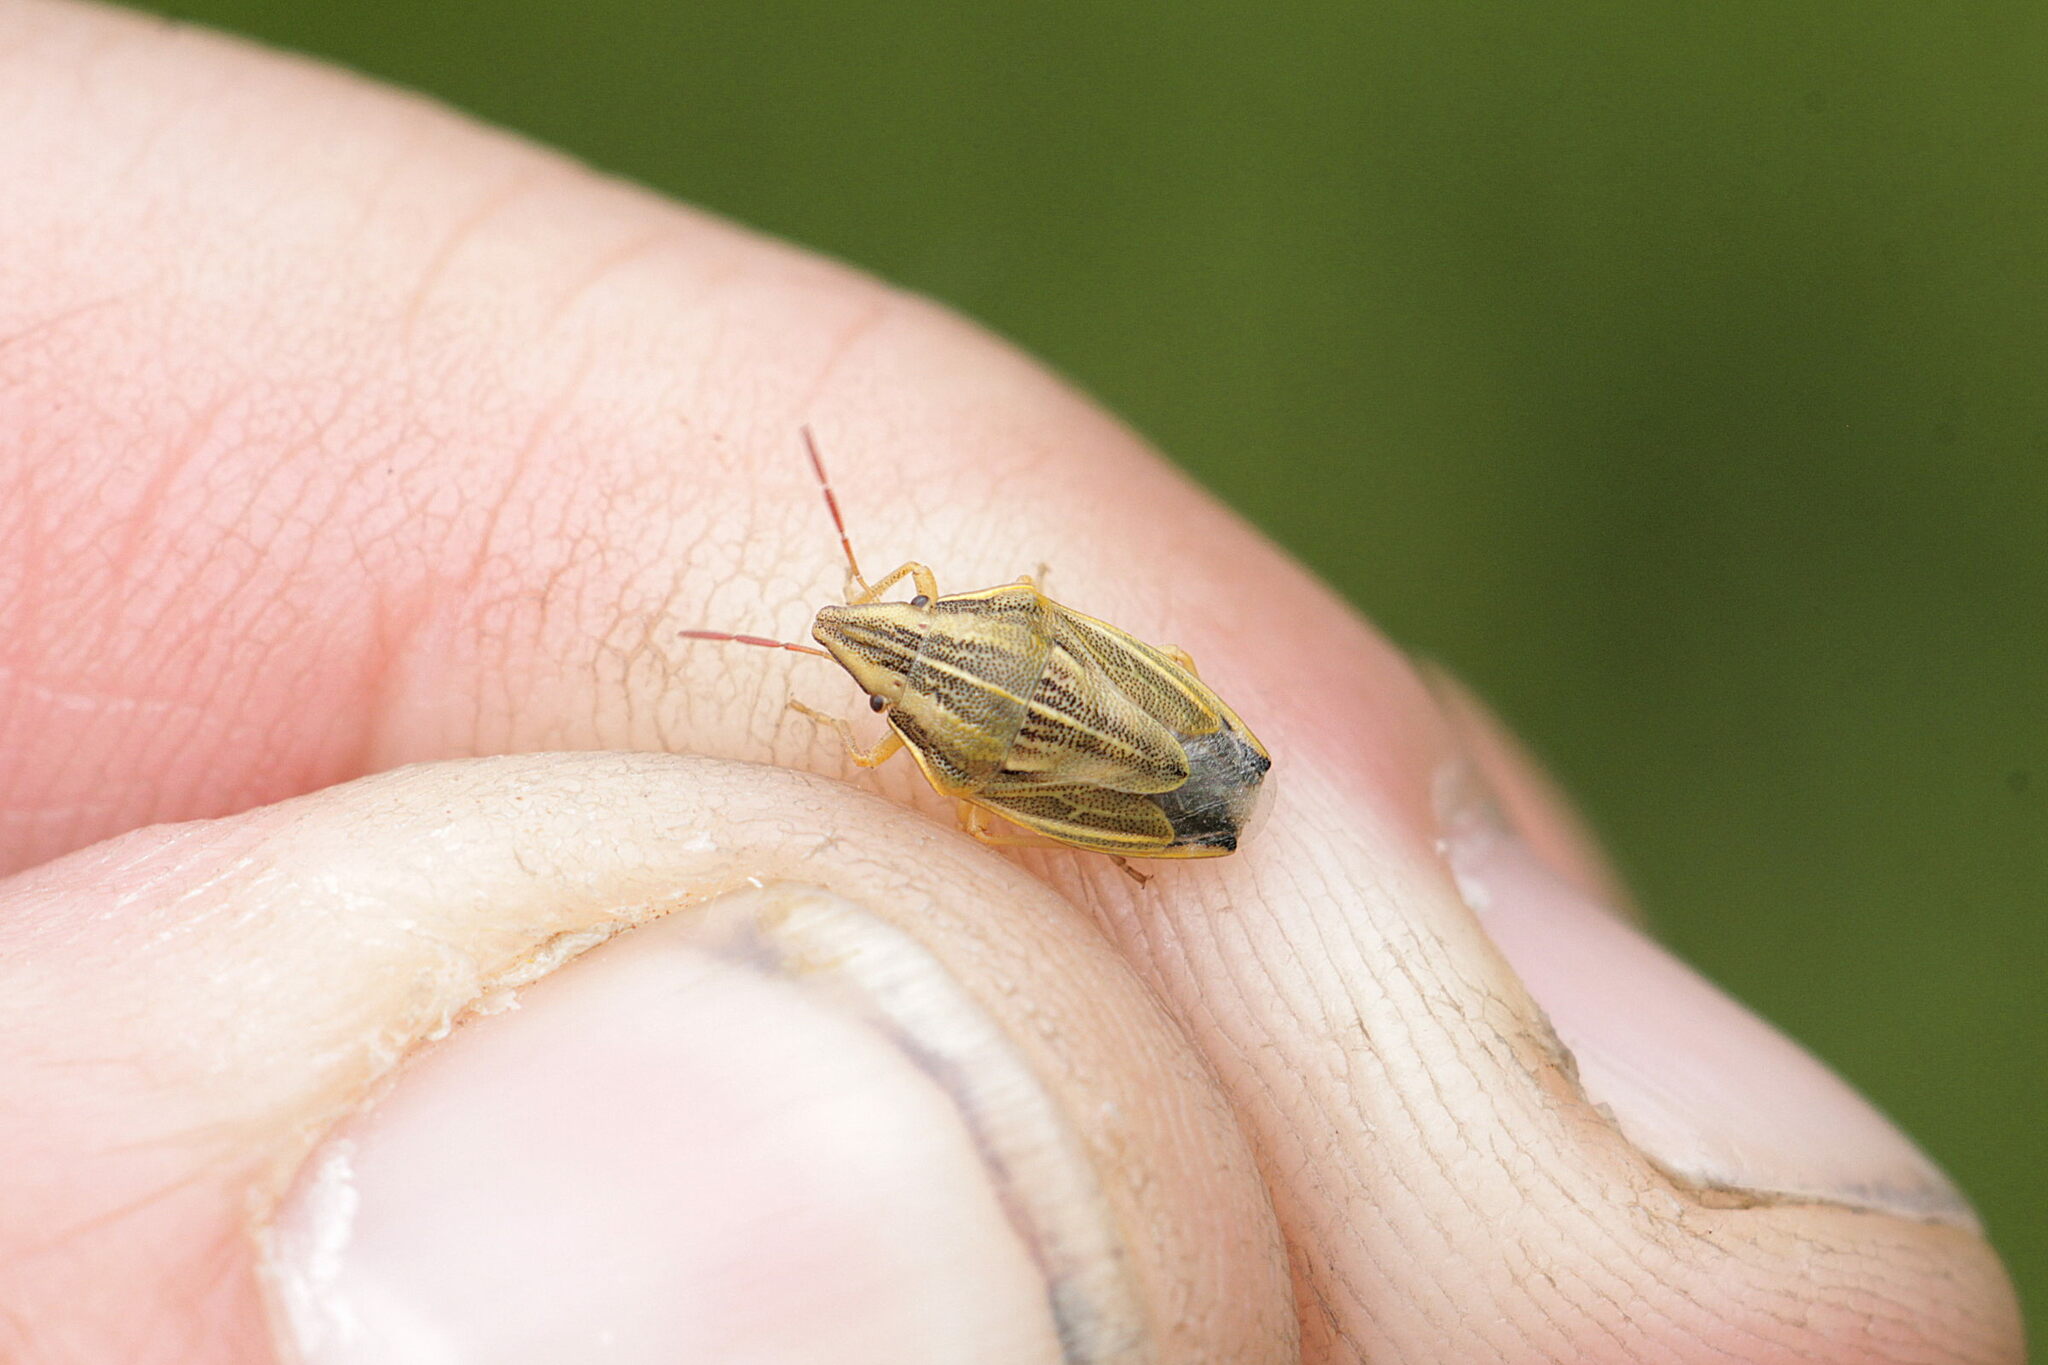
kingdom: Animalia
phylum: Arthropoda
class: Insecta
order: Hemiptera
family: Pentatomidae
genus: Aelia
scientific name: Aelia acuminata
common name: Bishop's mitre
